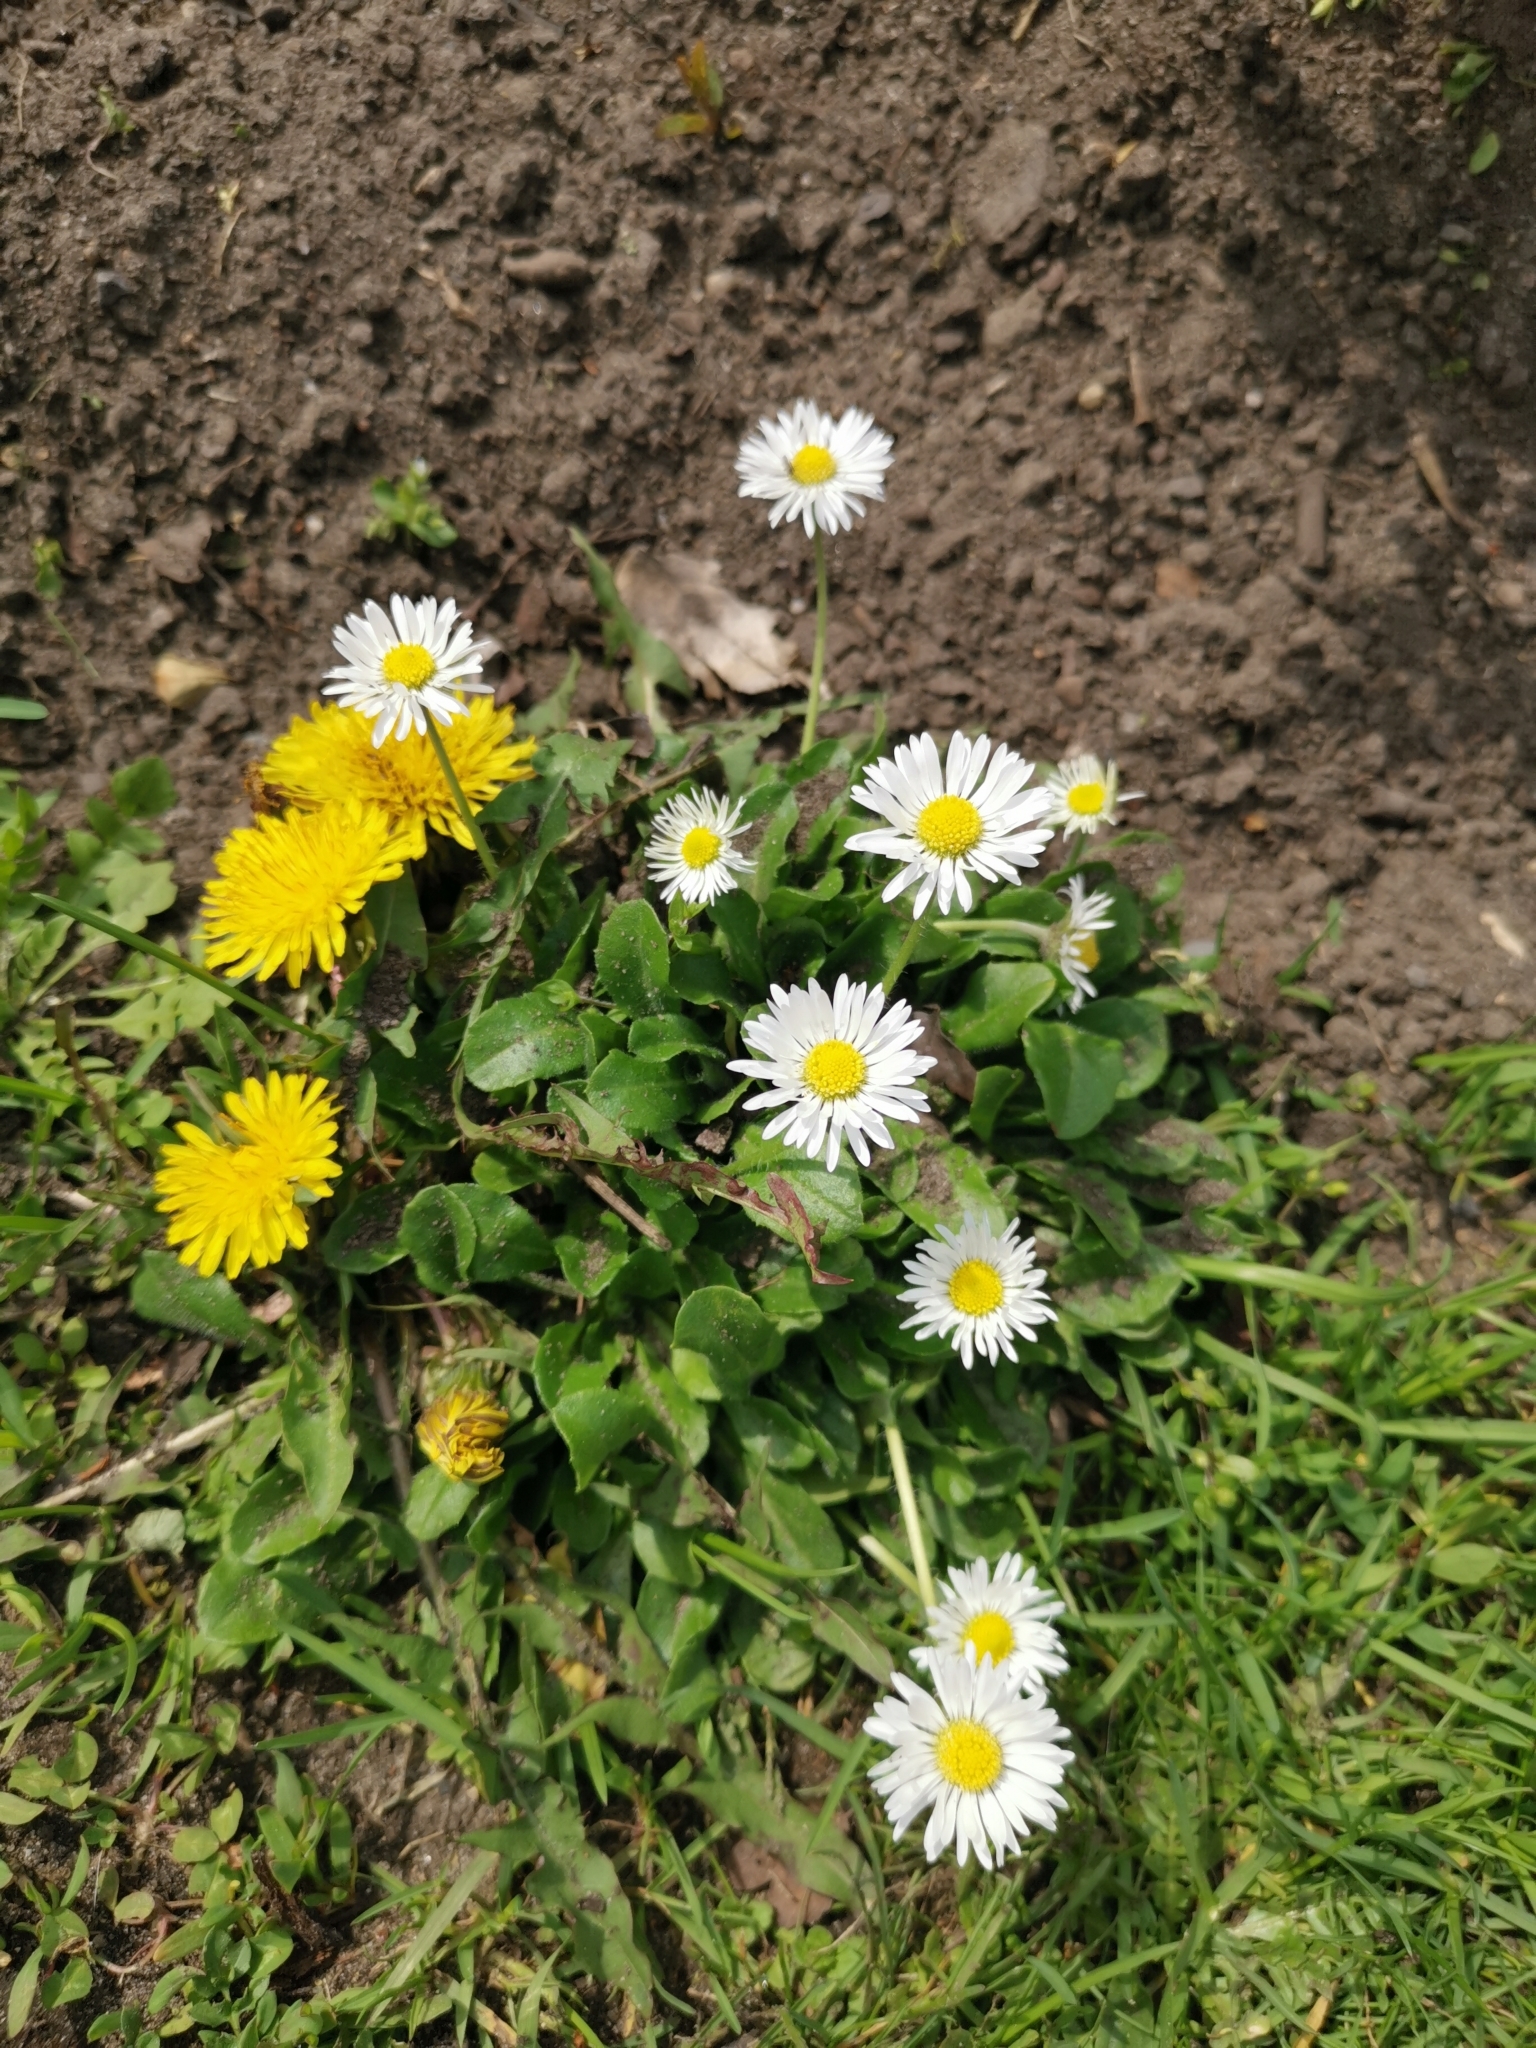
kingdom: Plantae
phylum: Tracheophyta
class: Magnoliopsida
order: Asterales
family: Asteraceae
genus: Bellis
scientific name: Bellis perennis
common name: Lawndaisy
